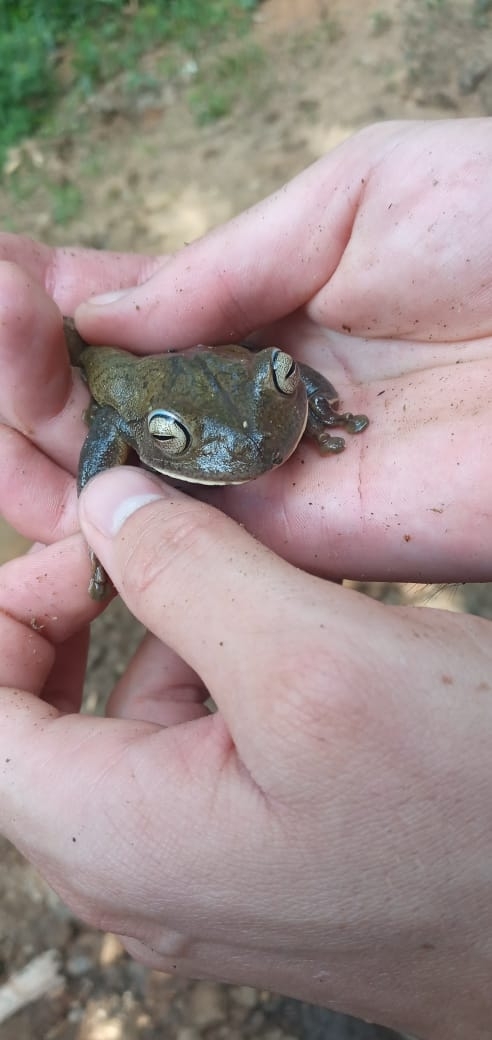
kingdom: Animalia
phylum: Chordata
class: Amphibia
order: Anura
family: Hylidae
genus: Boana
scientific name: Boana faber
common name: Blacksmith tree frog
